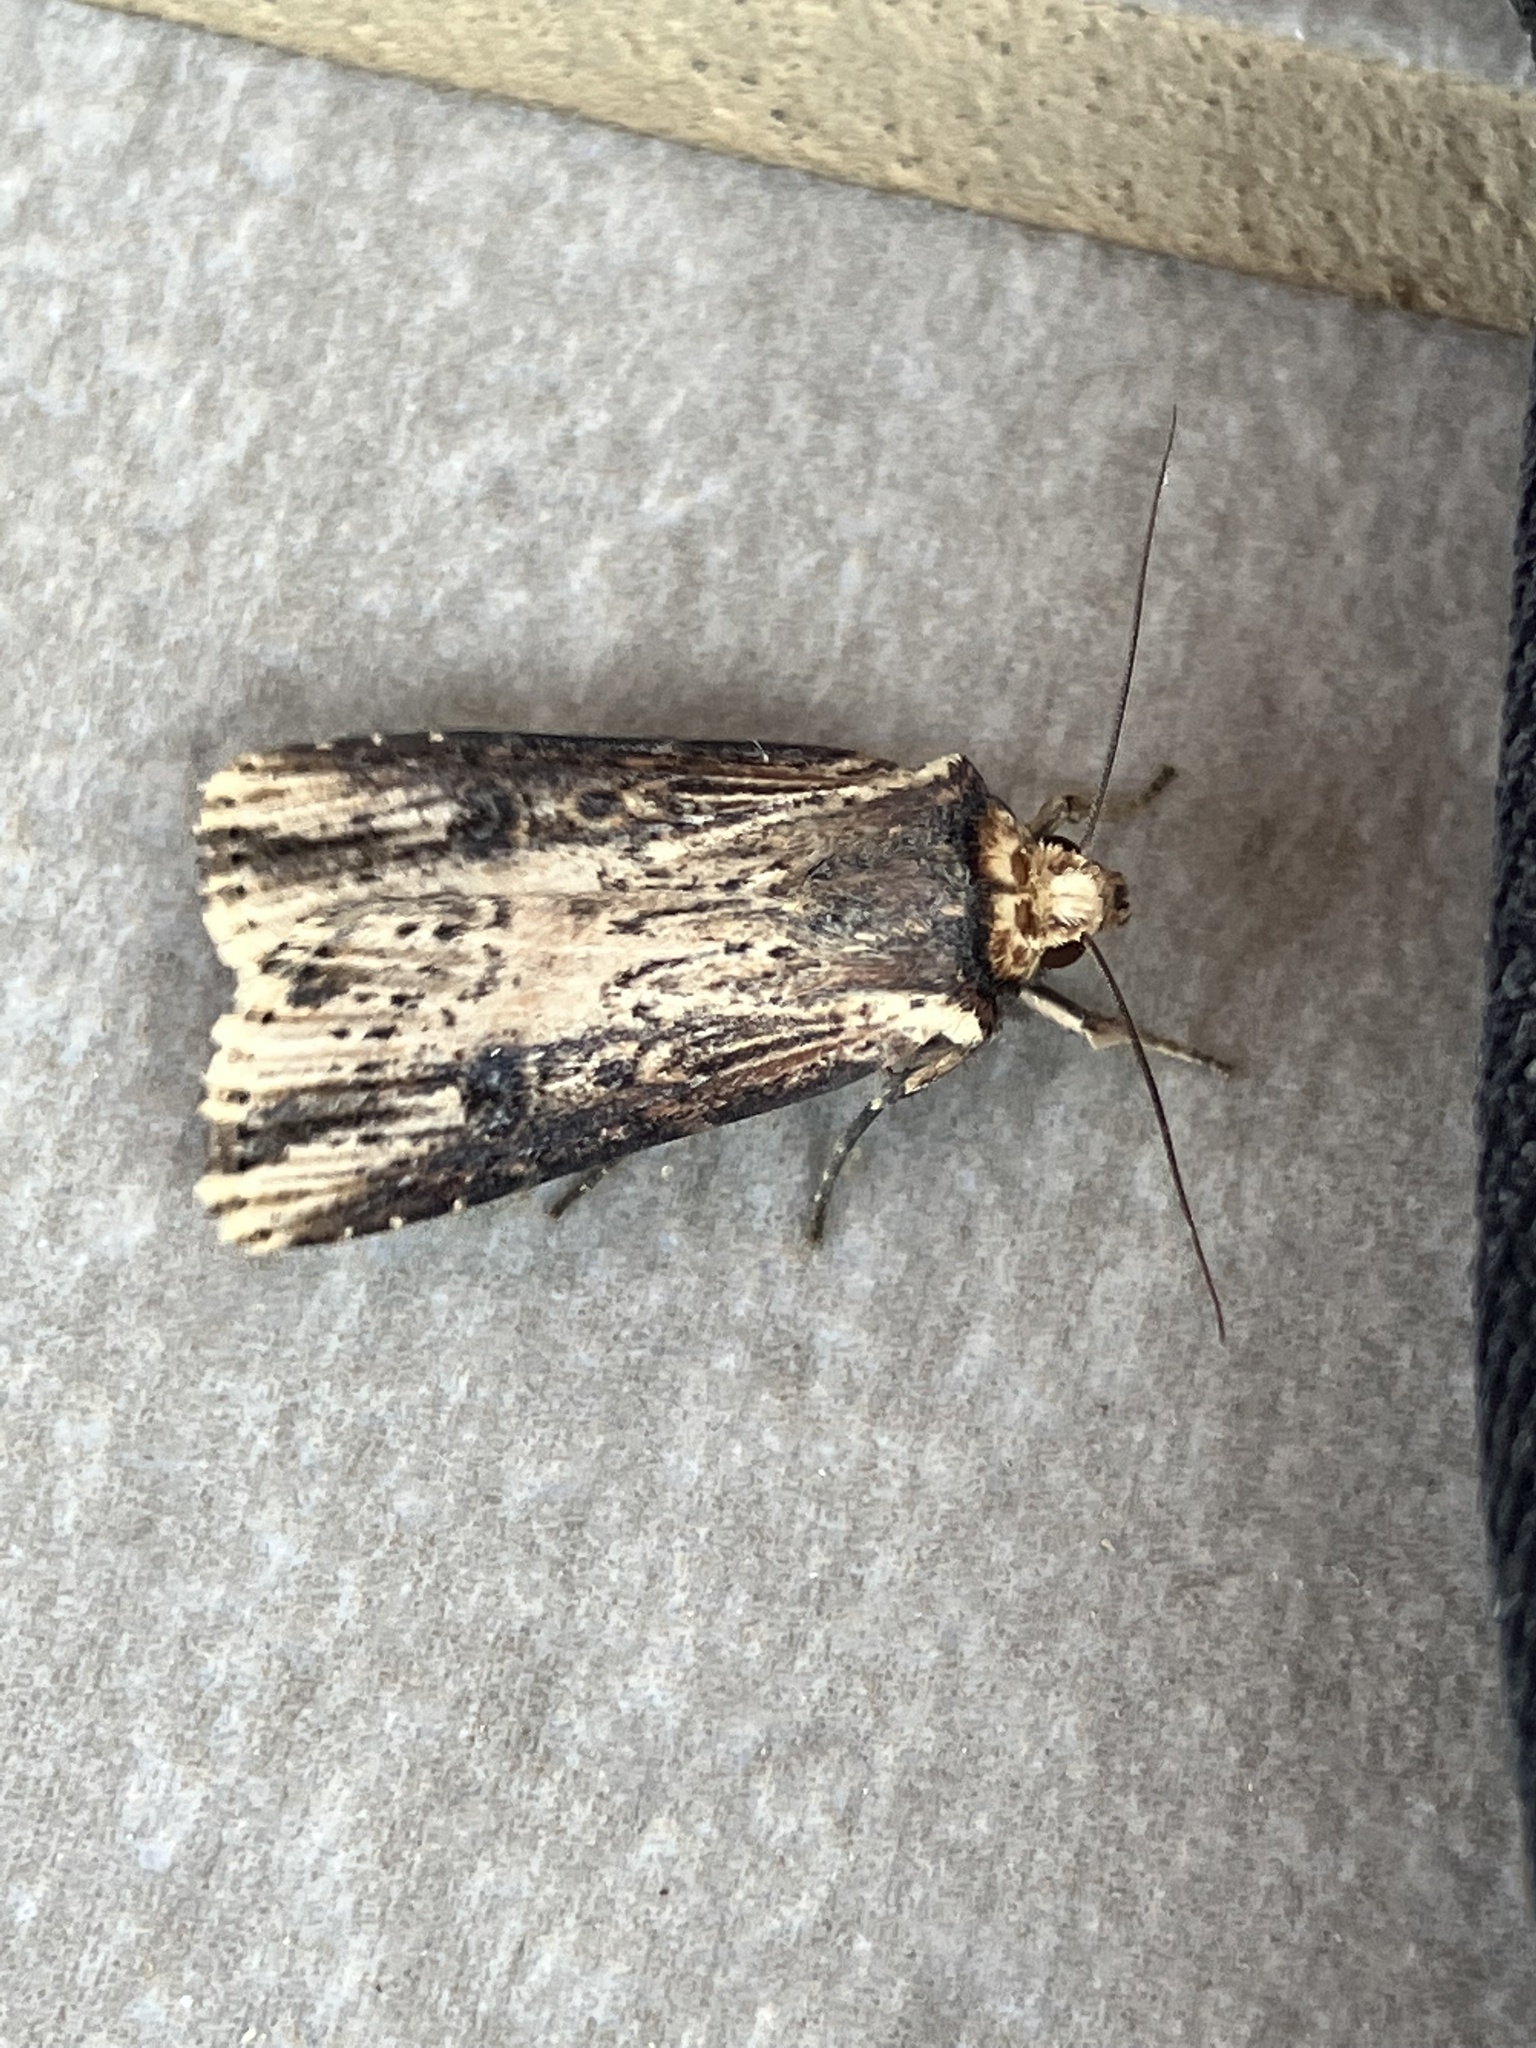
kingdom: Animalia
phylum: Arthropoda
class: Insecta
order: Lepidoptera
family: Noctuidae
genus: Axylia
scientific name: Axylia putris
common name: Flame
